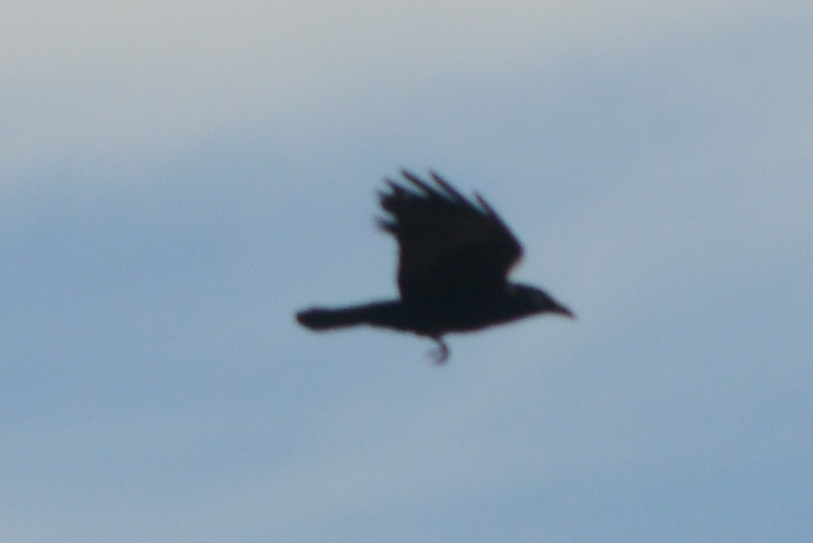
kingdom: Animalia
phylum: Chordata
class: Aves
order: Passeriformes
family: Corvidae
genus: Corvus
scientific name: Corvus brachyrhynchos
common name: American crow
